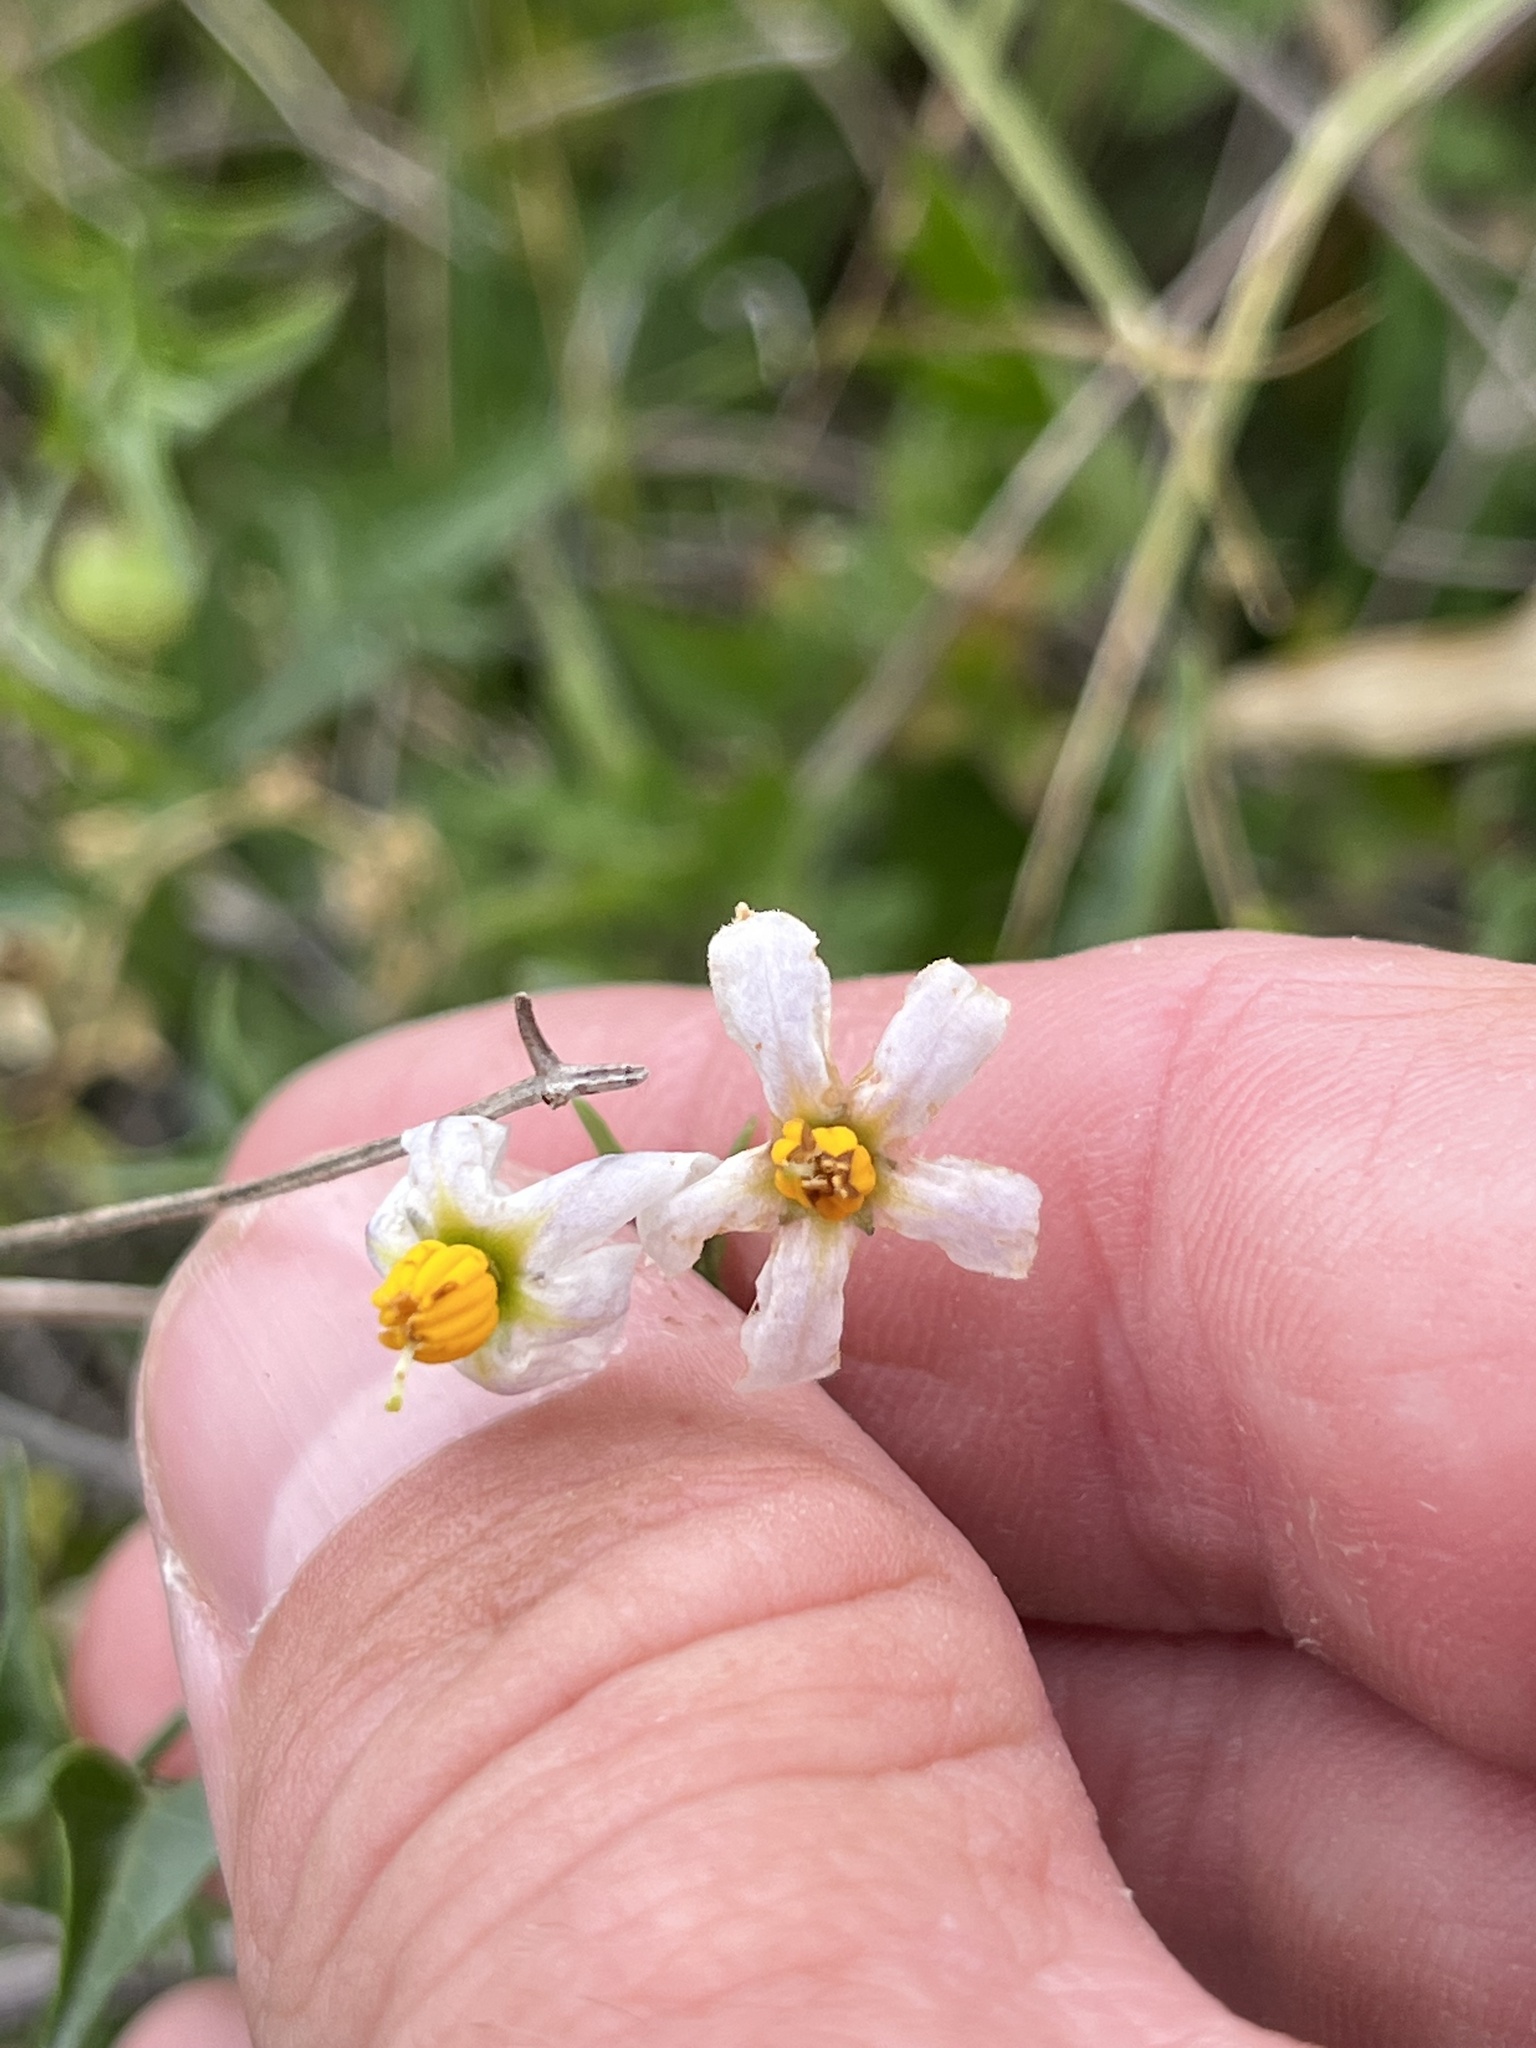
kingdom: Plantae
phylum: Tracheophyta
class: Magnoliopsida
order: Solanales
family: Solanaceae
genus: Solanum
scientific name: Solanum triquetrum
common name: Texas nightshade
